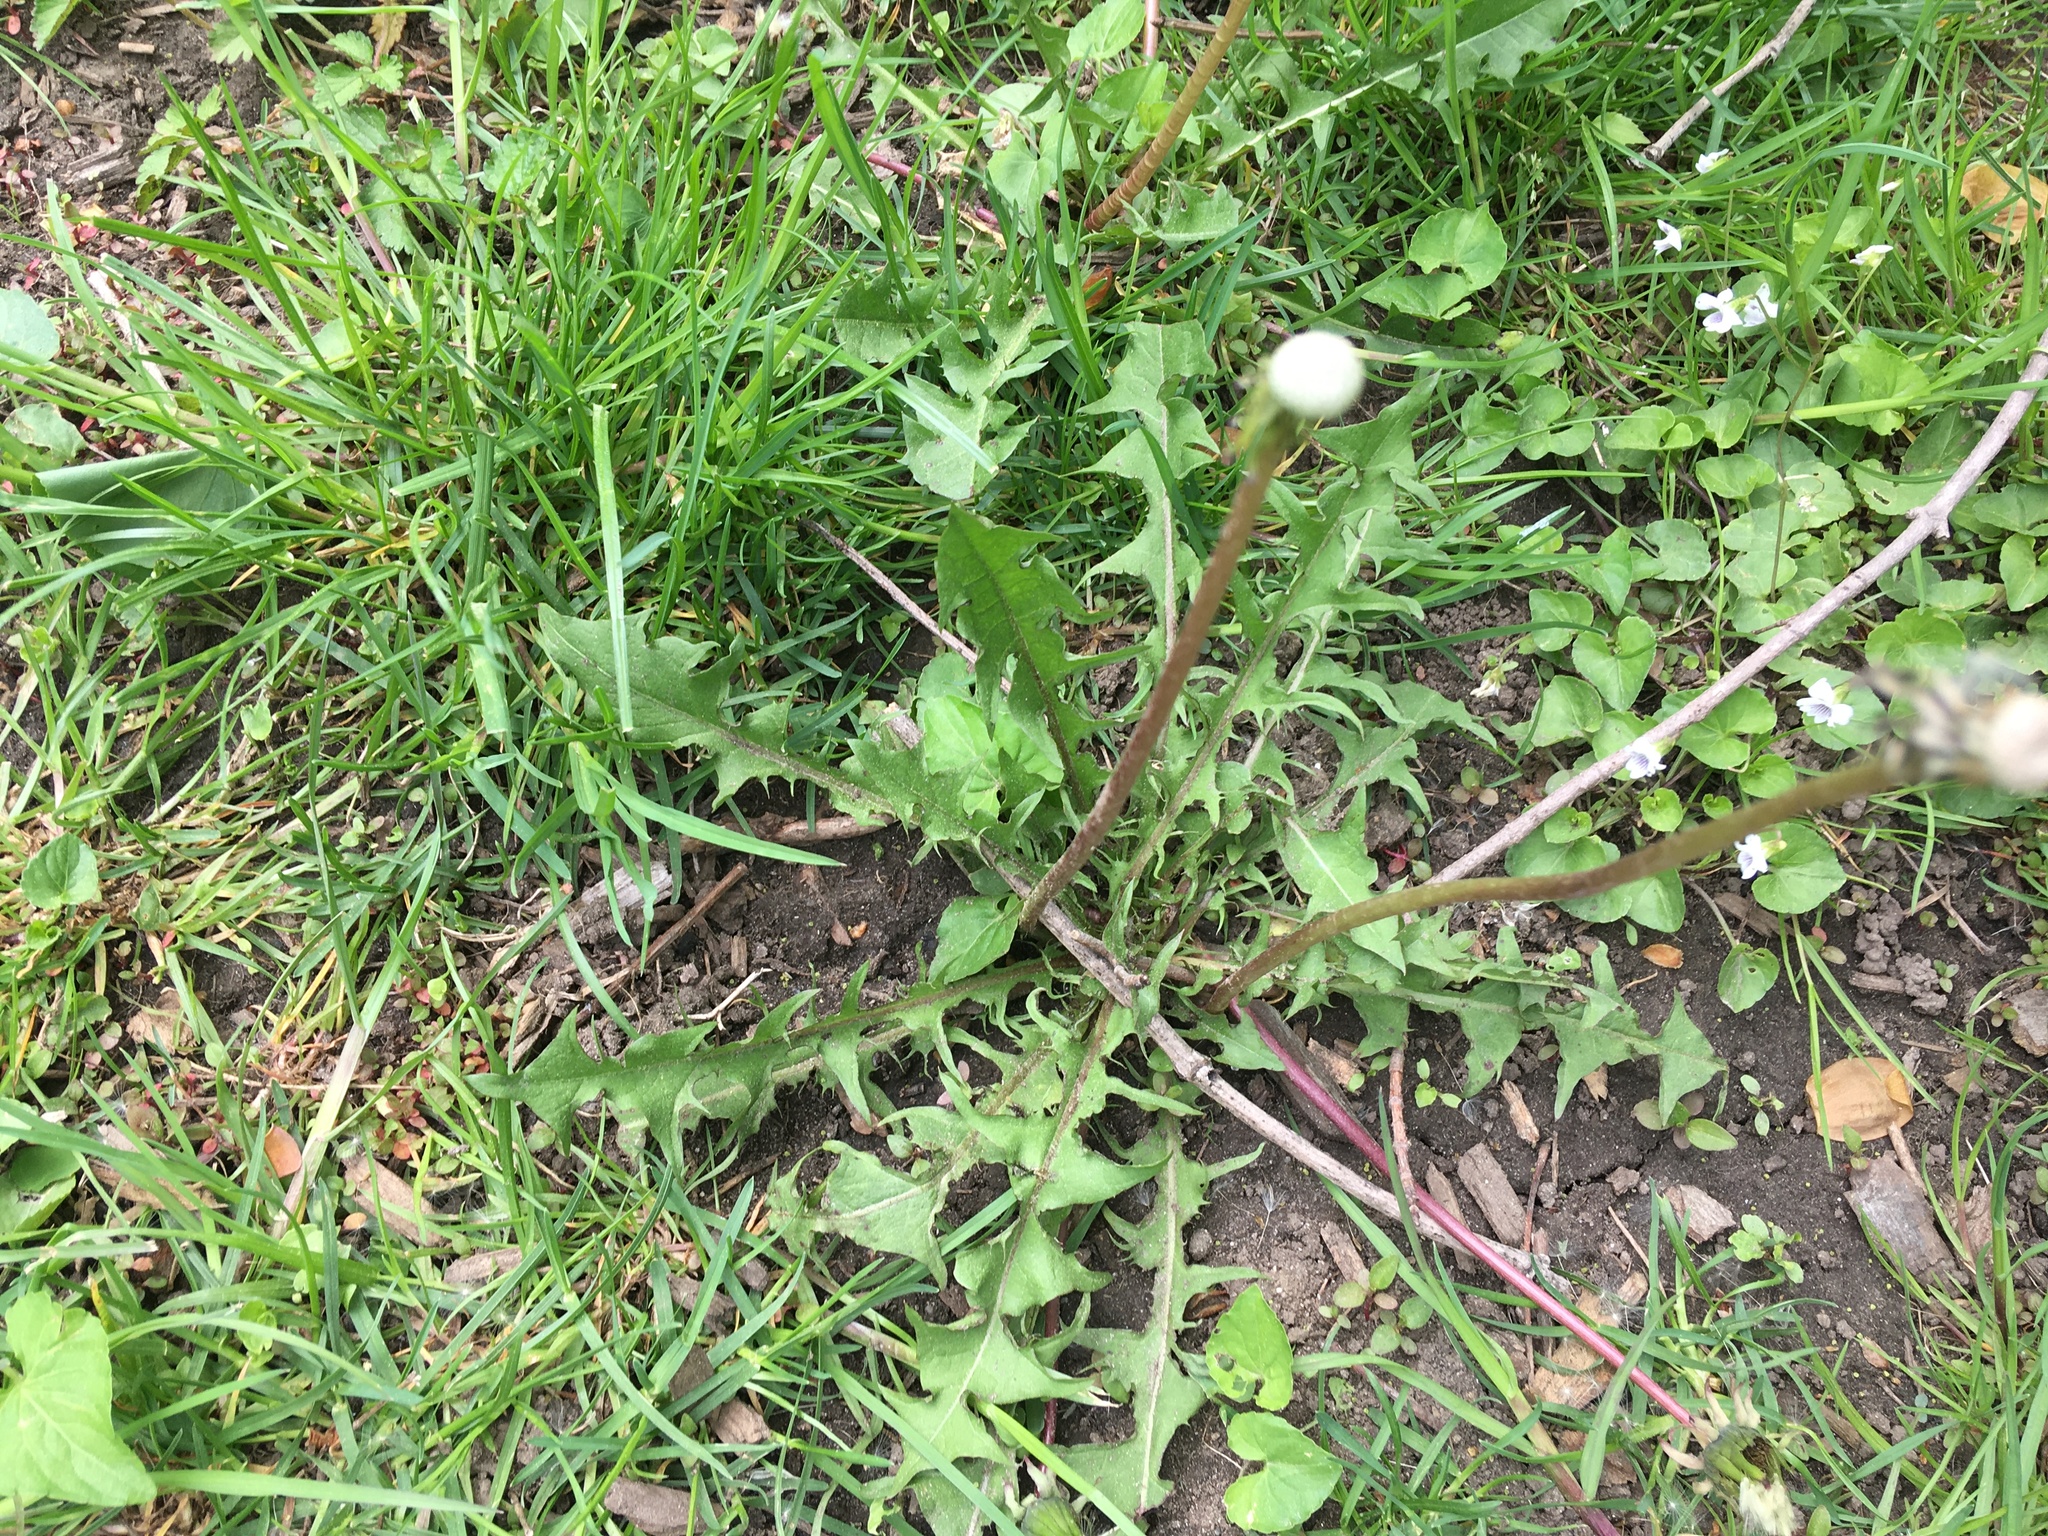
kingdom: Plantae
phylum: Tracheophyta
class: Magnoliopsida
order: Asterales
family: Asteraceae
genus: Taraxacum
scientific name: Taraxacum
